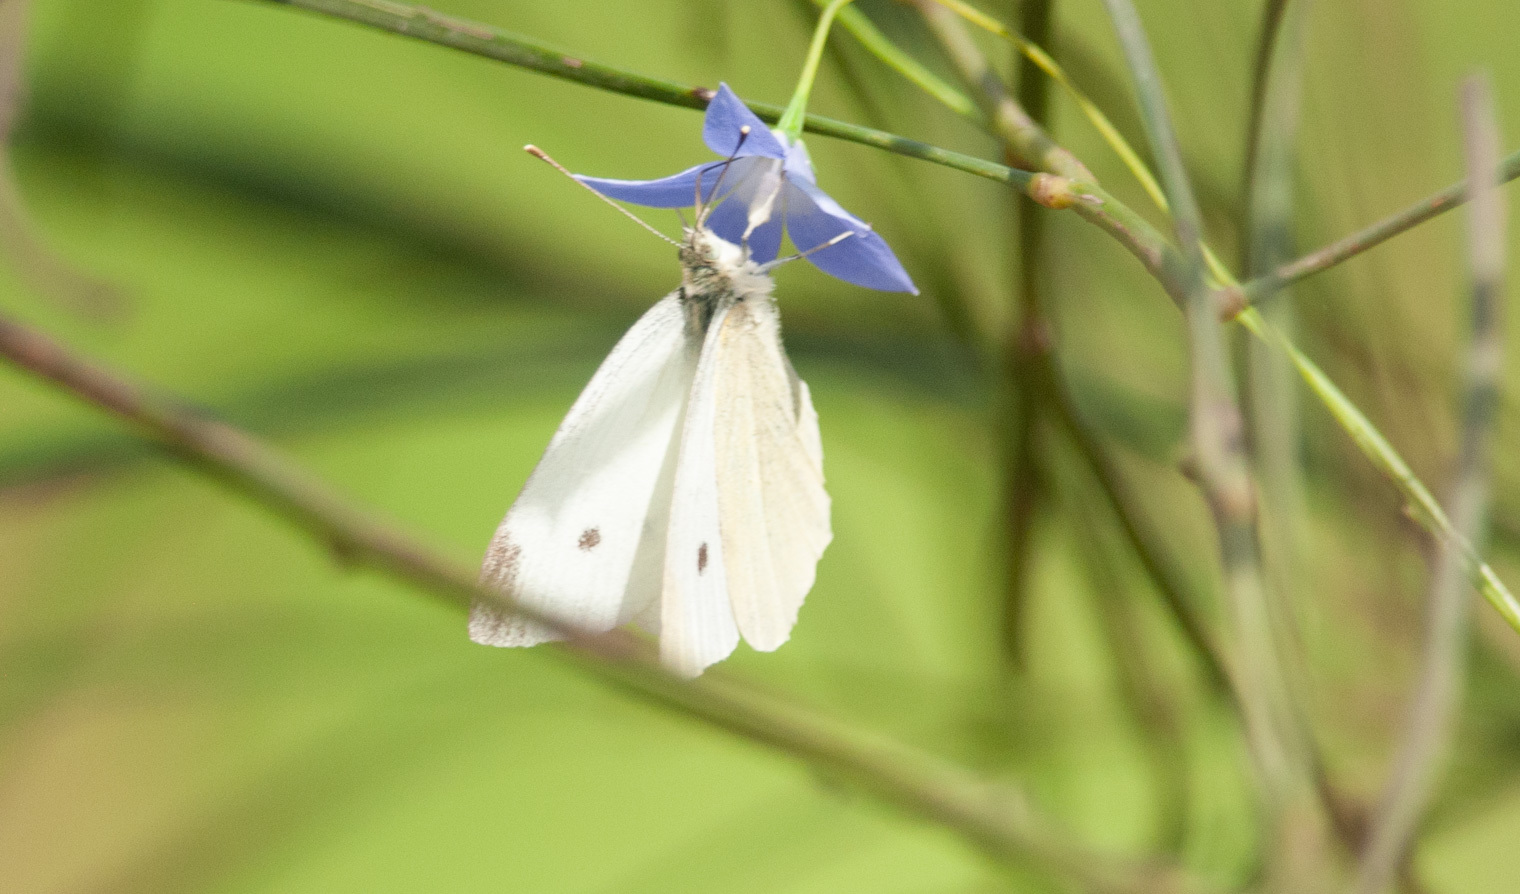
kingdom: Animalia
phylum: Arthropoda
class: Insecta
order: Lepidoptera
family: Pieridae
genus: Pieris
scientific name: Pieris rapae
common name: Small white
